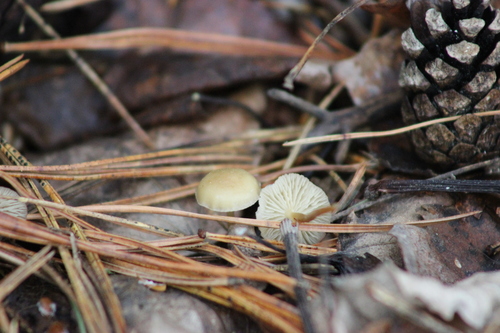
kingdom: Fungi
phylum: Basidiomycota
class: Agaricomycetes
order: Agaricales
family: Physalacriaceae
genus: Strobilurus
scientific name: Strobilurus stephanocystis
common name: Russian conecap
